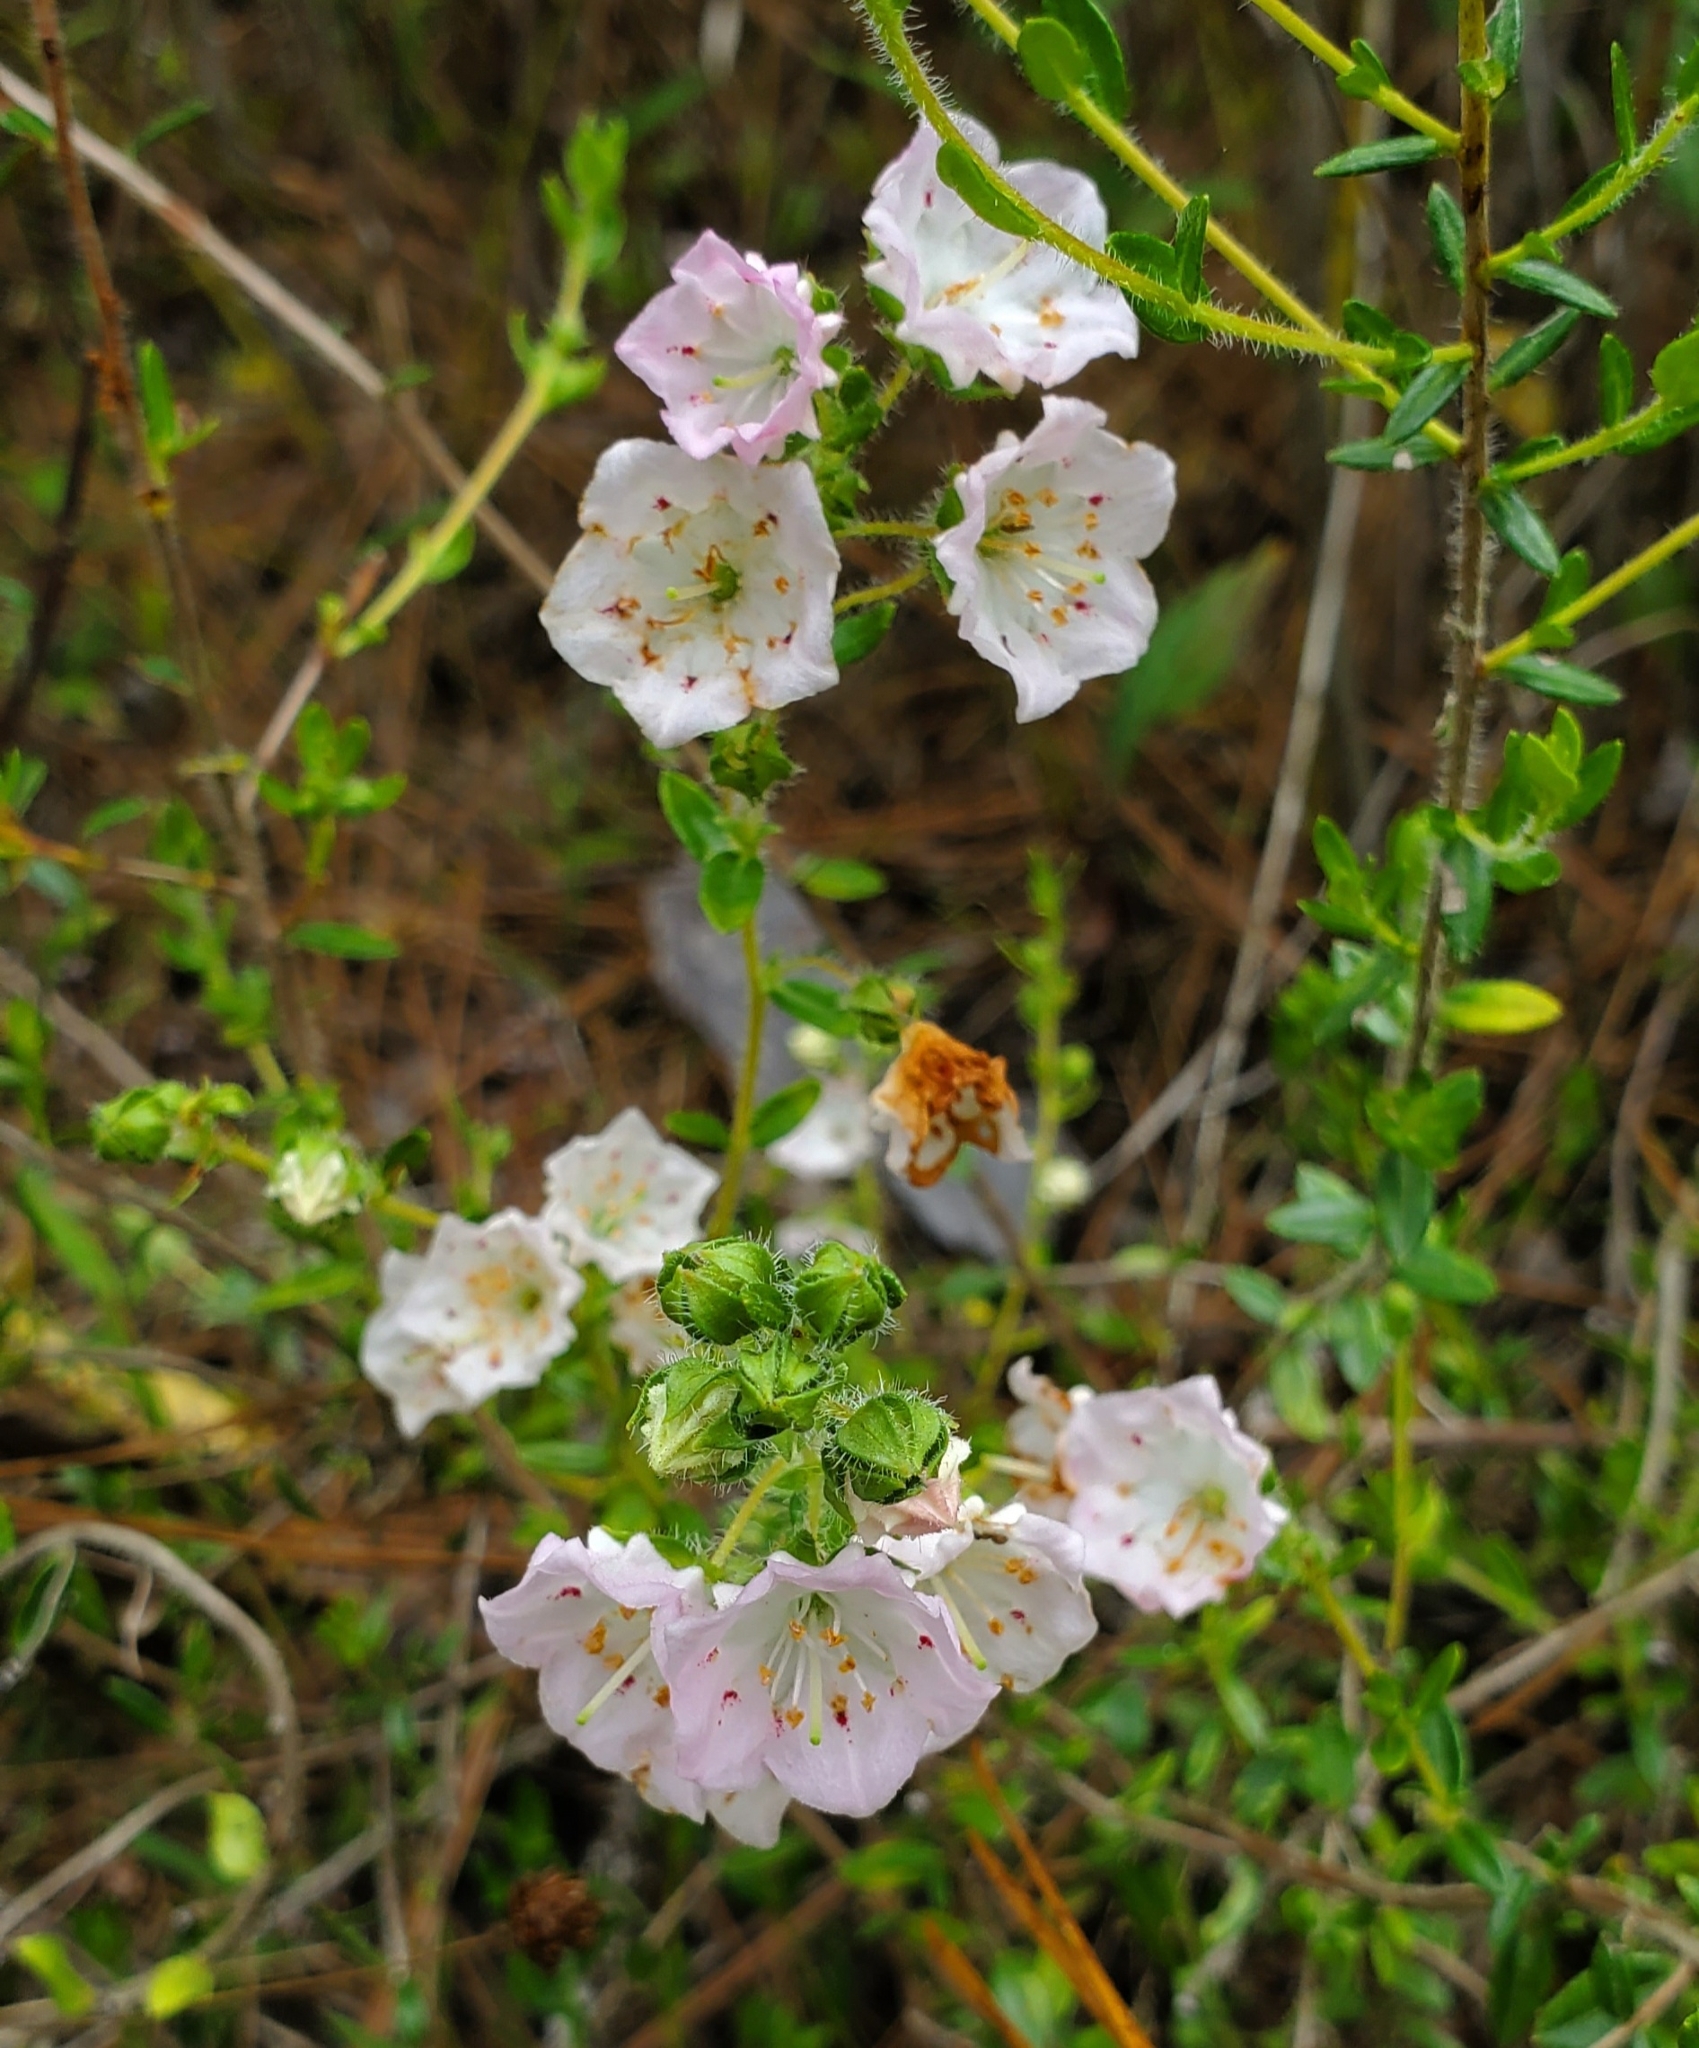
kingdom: Plantae
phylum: Tracheophyta
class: Magnoliopsida
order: Ericales
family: Ericaceae
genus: Kalmia
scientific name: Kalmia hirsuta
